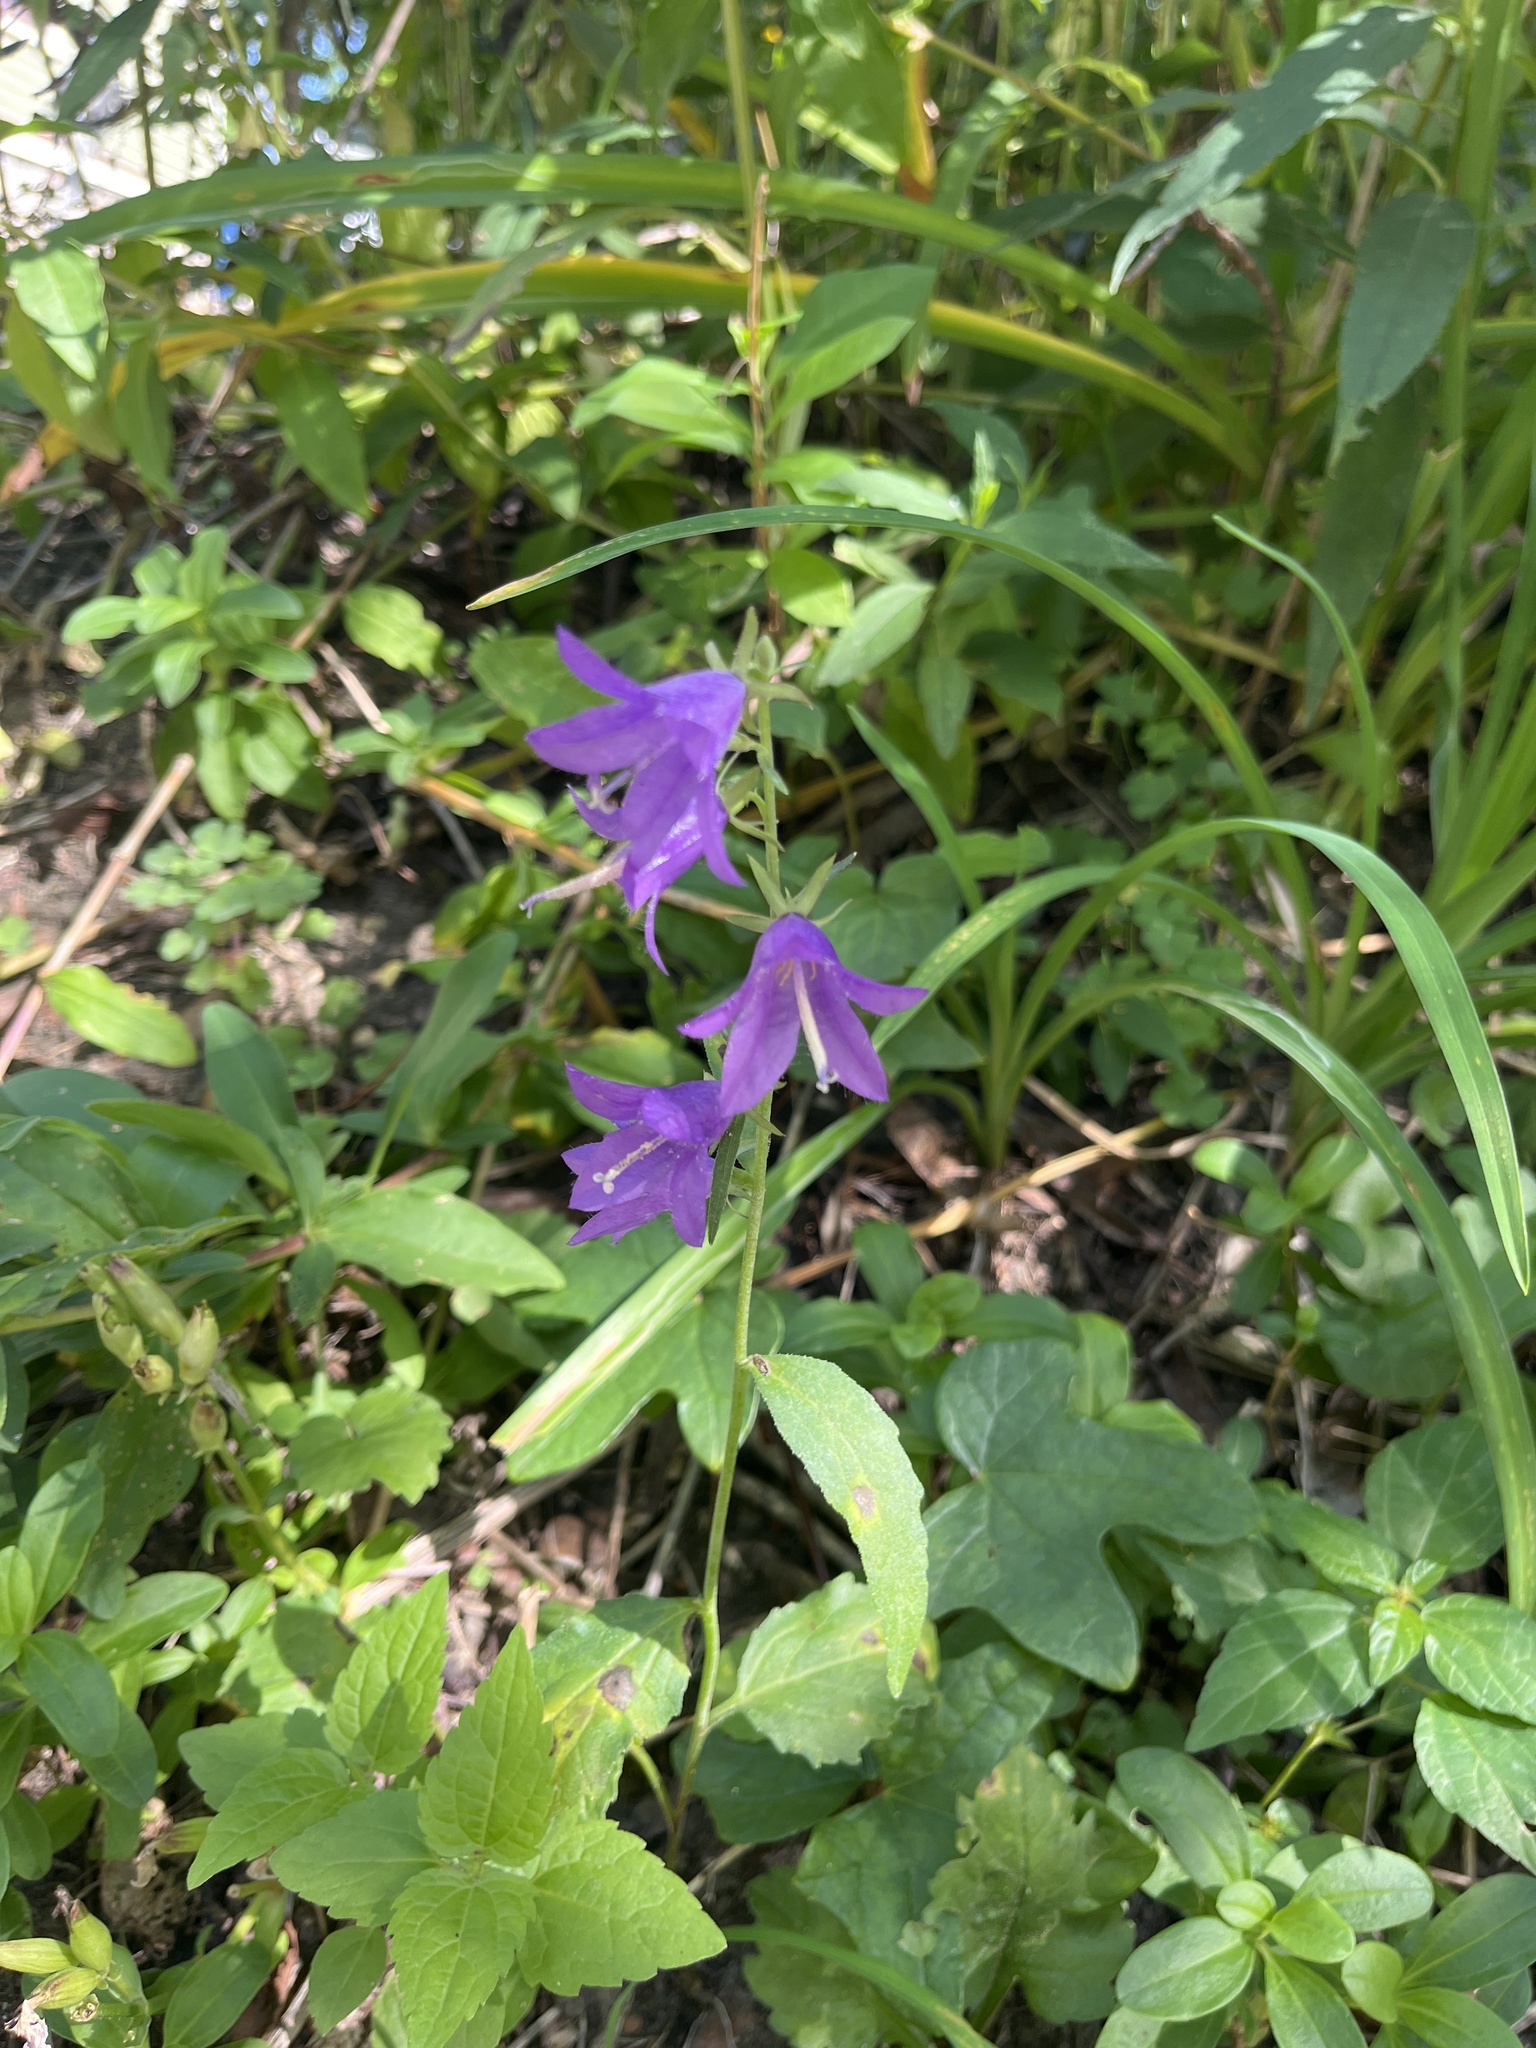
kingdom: Plantae
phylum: Tracheophyta
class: Magnoliopsida
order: Asterales
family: Campanulaceae
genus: Campanula
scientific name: Campanula rapunculoides
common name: Creeping bellflower
